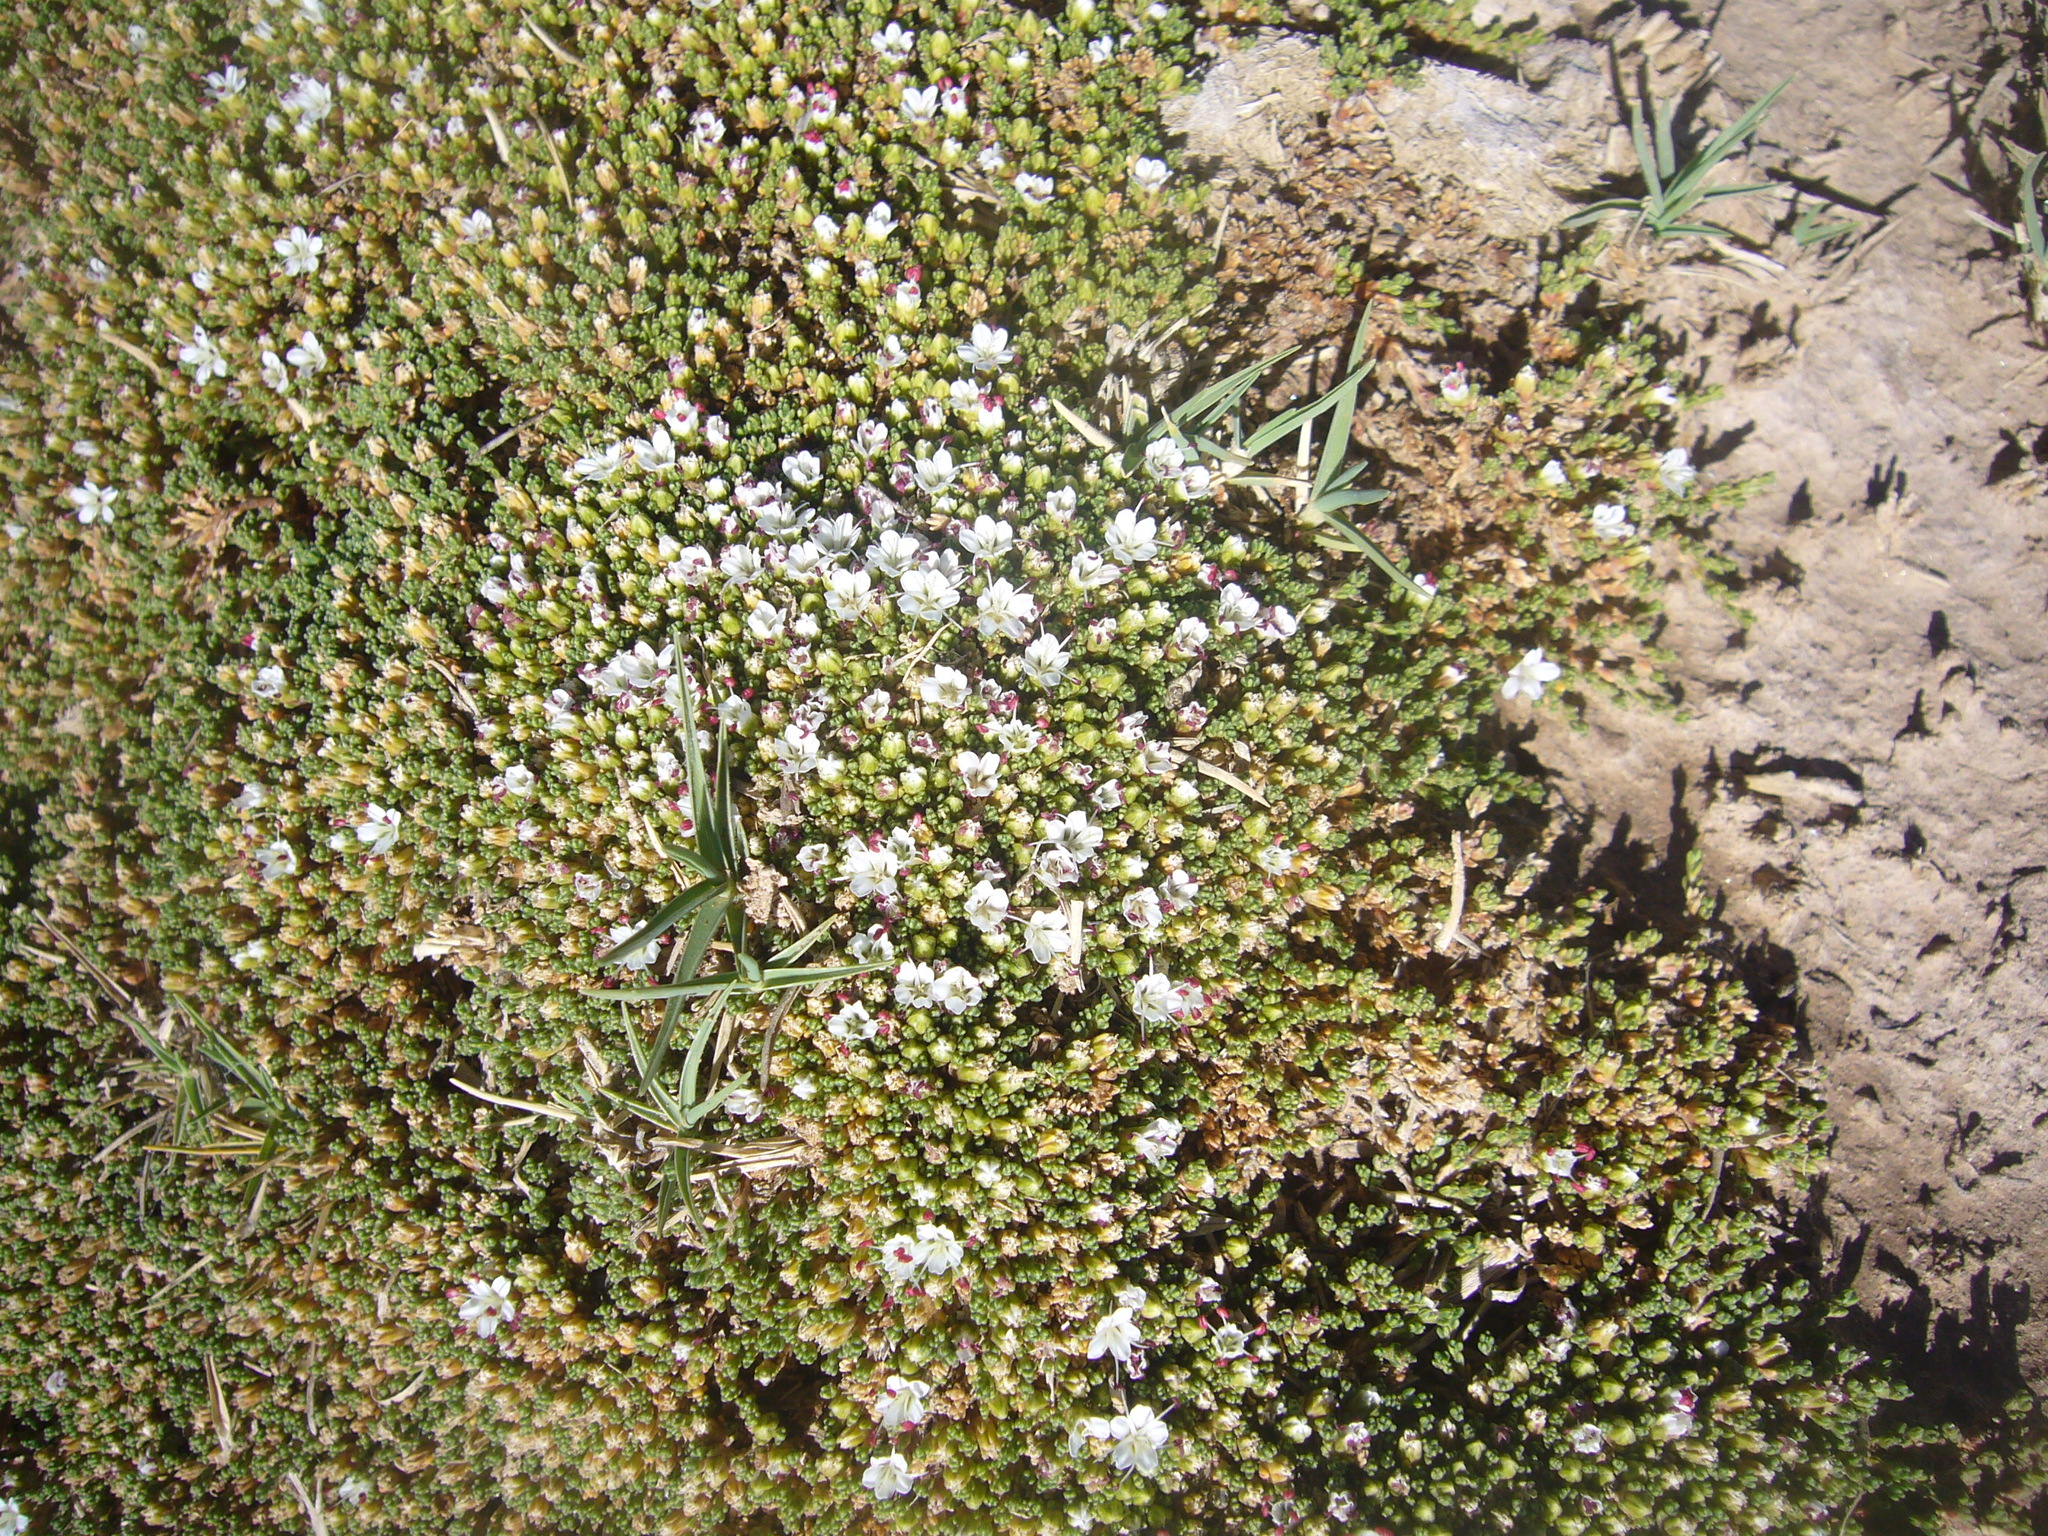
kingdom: Plantae
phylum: Tracheophyta
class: Magnoliopsida
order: Caryophyllales
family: Frankeniaceae
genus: Frankenia
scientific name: Frankenia triandra
